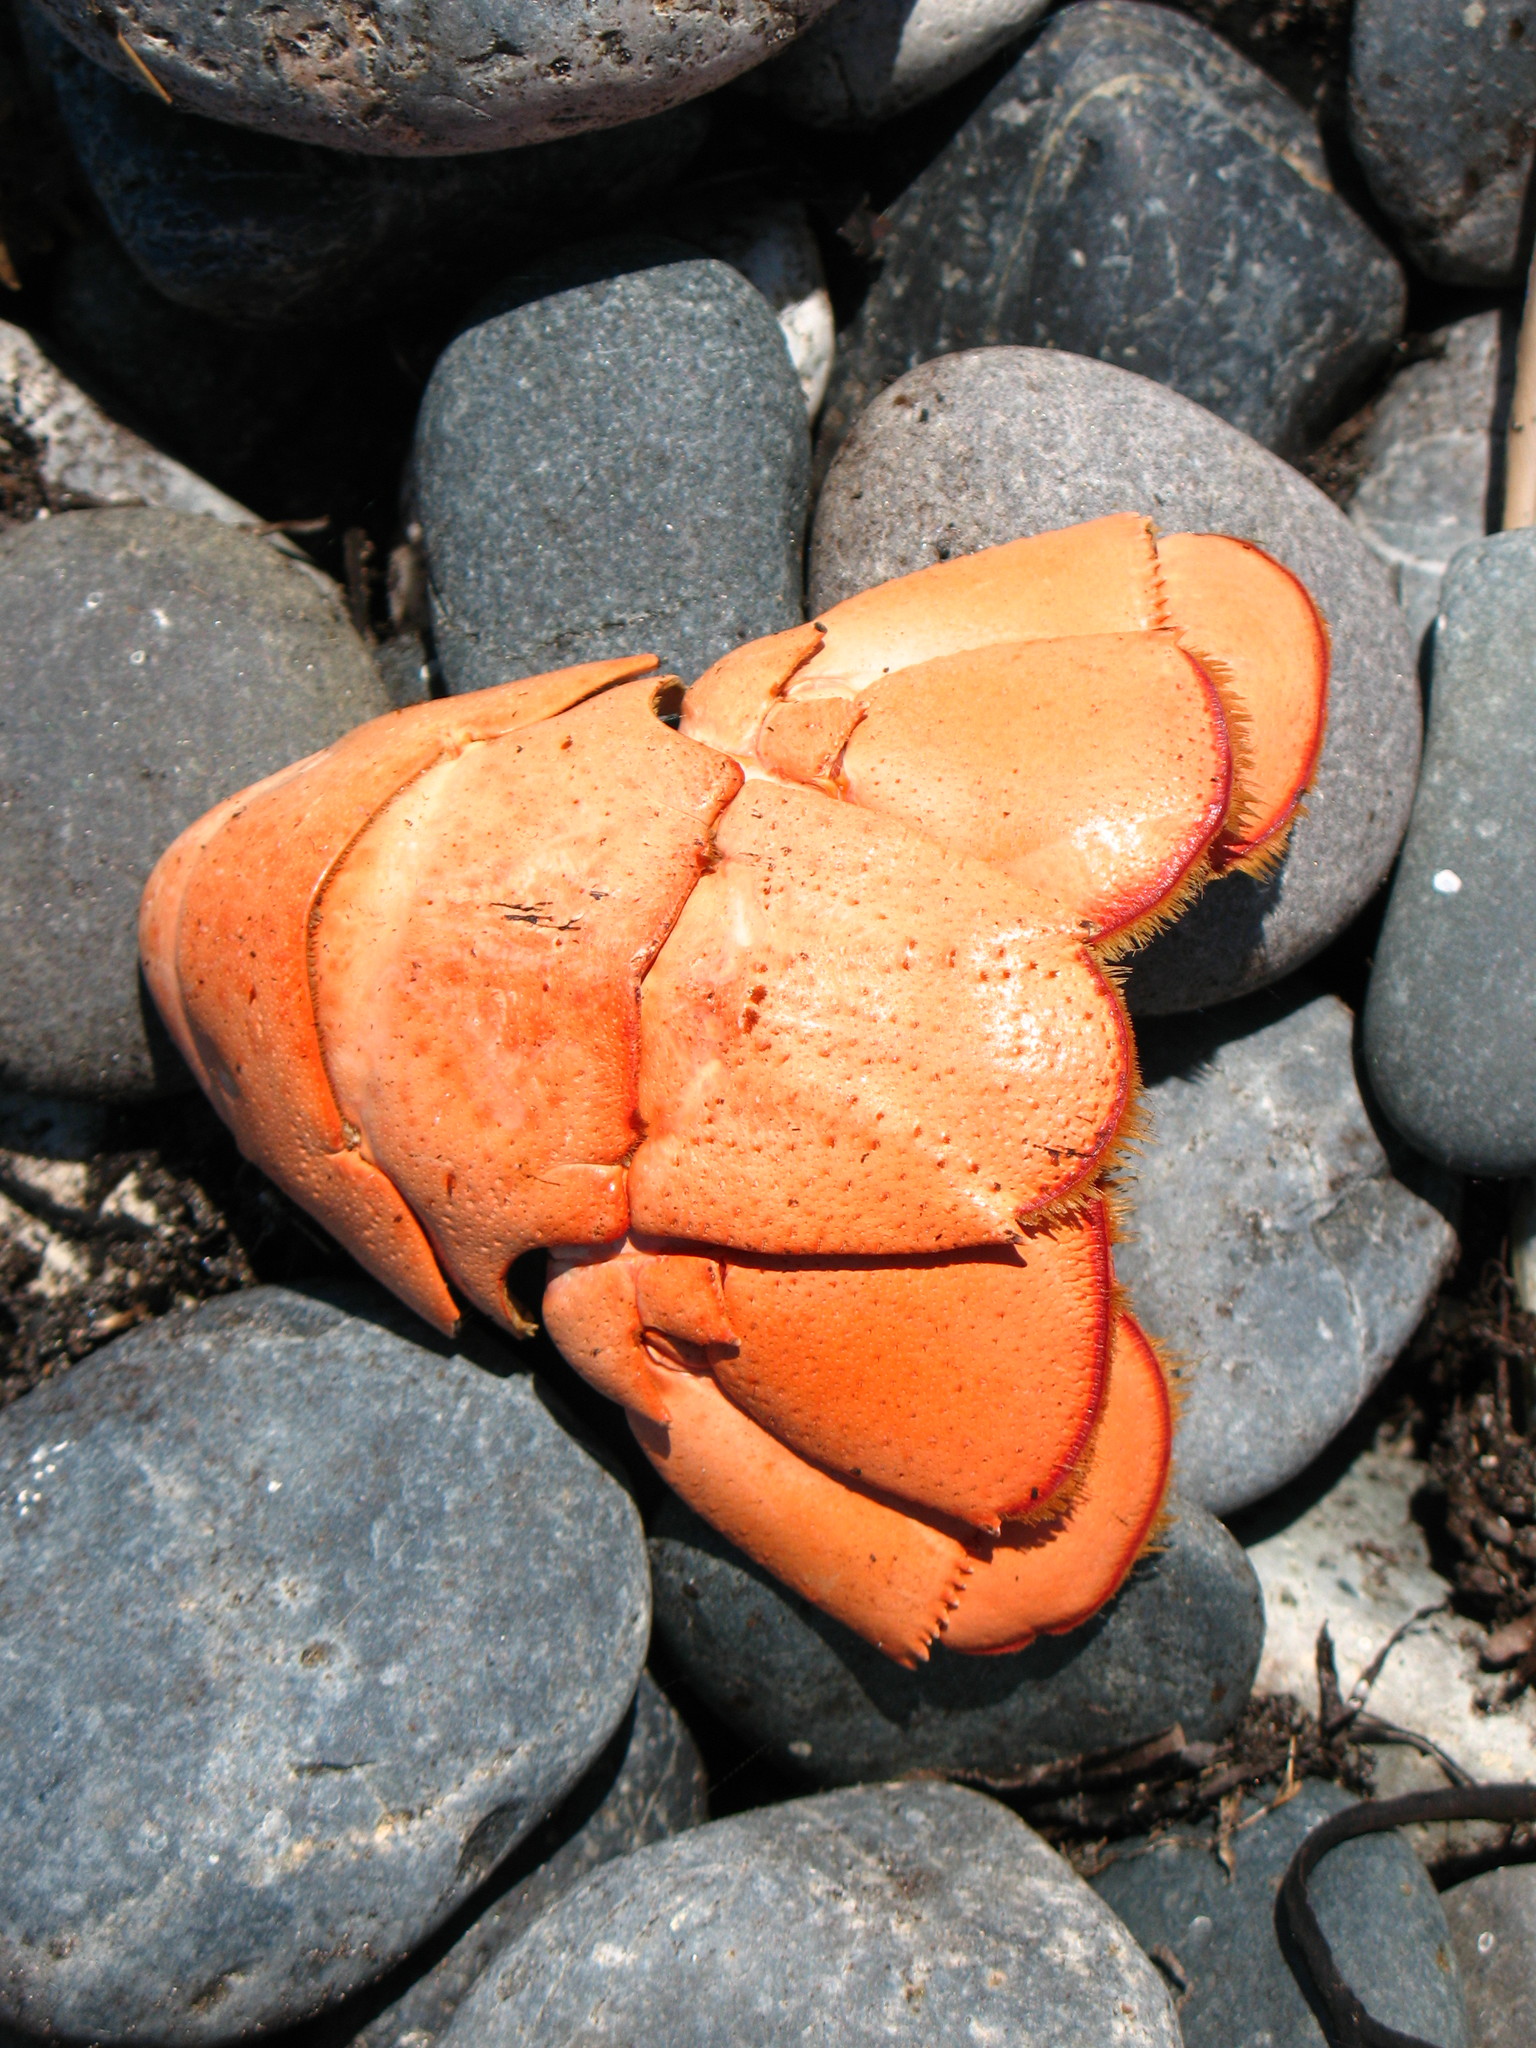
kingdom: Animalia
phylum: Arthropoda
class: Malacostraca
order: Decapoda
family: Nephropidae
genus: Homarus
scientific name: Homarus americanus
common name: American lobster
